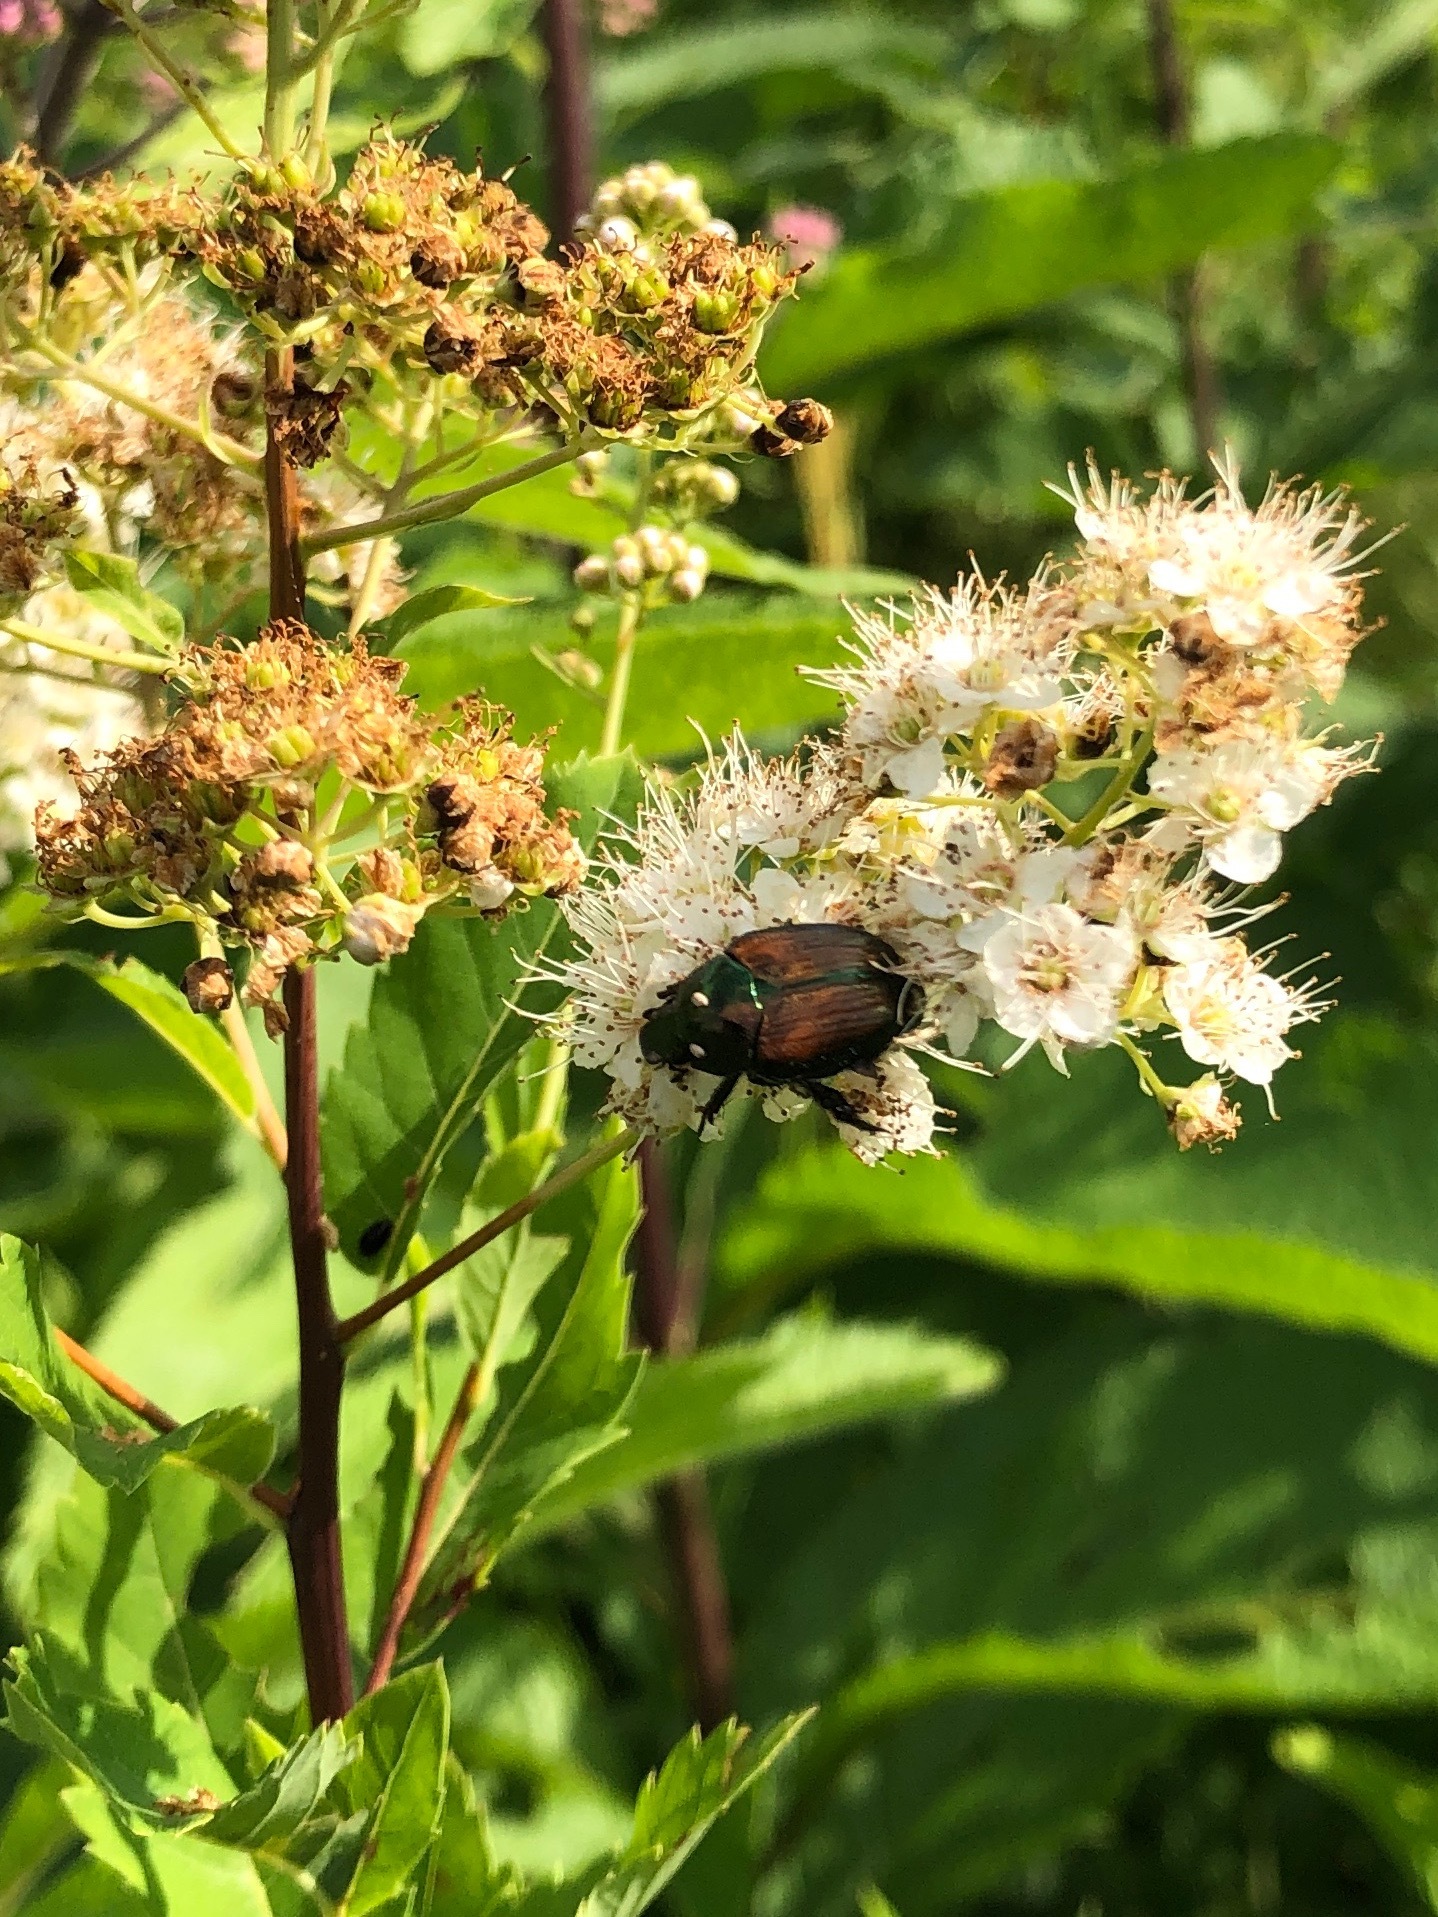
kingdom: Animalia
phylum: Arthropoda
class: Insecta
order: Coleoptera
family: Scarabaeidae
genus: Popillia
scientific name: Popillia japonica
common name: Japanese beetle
